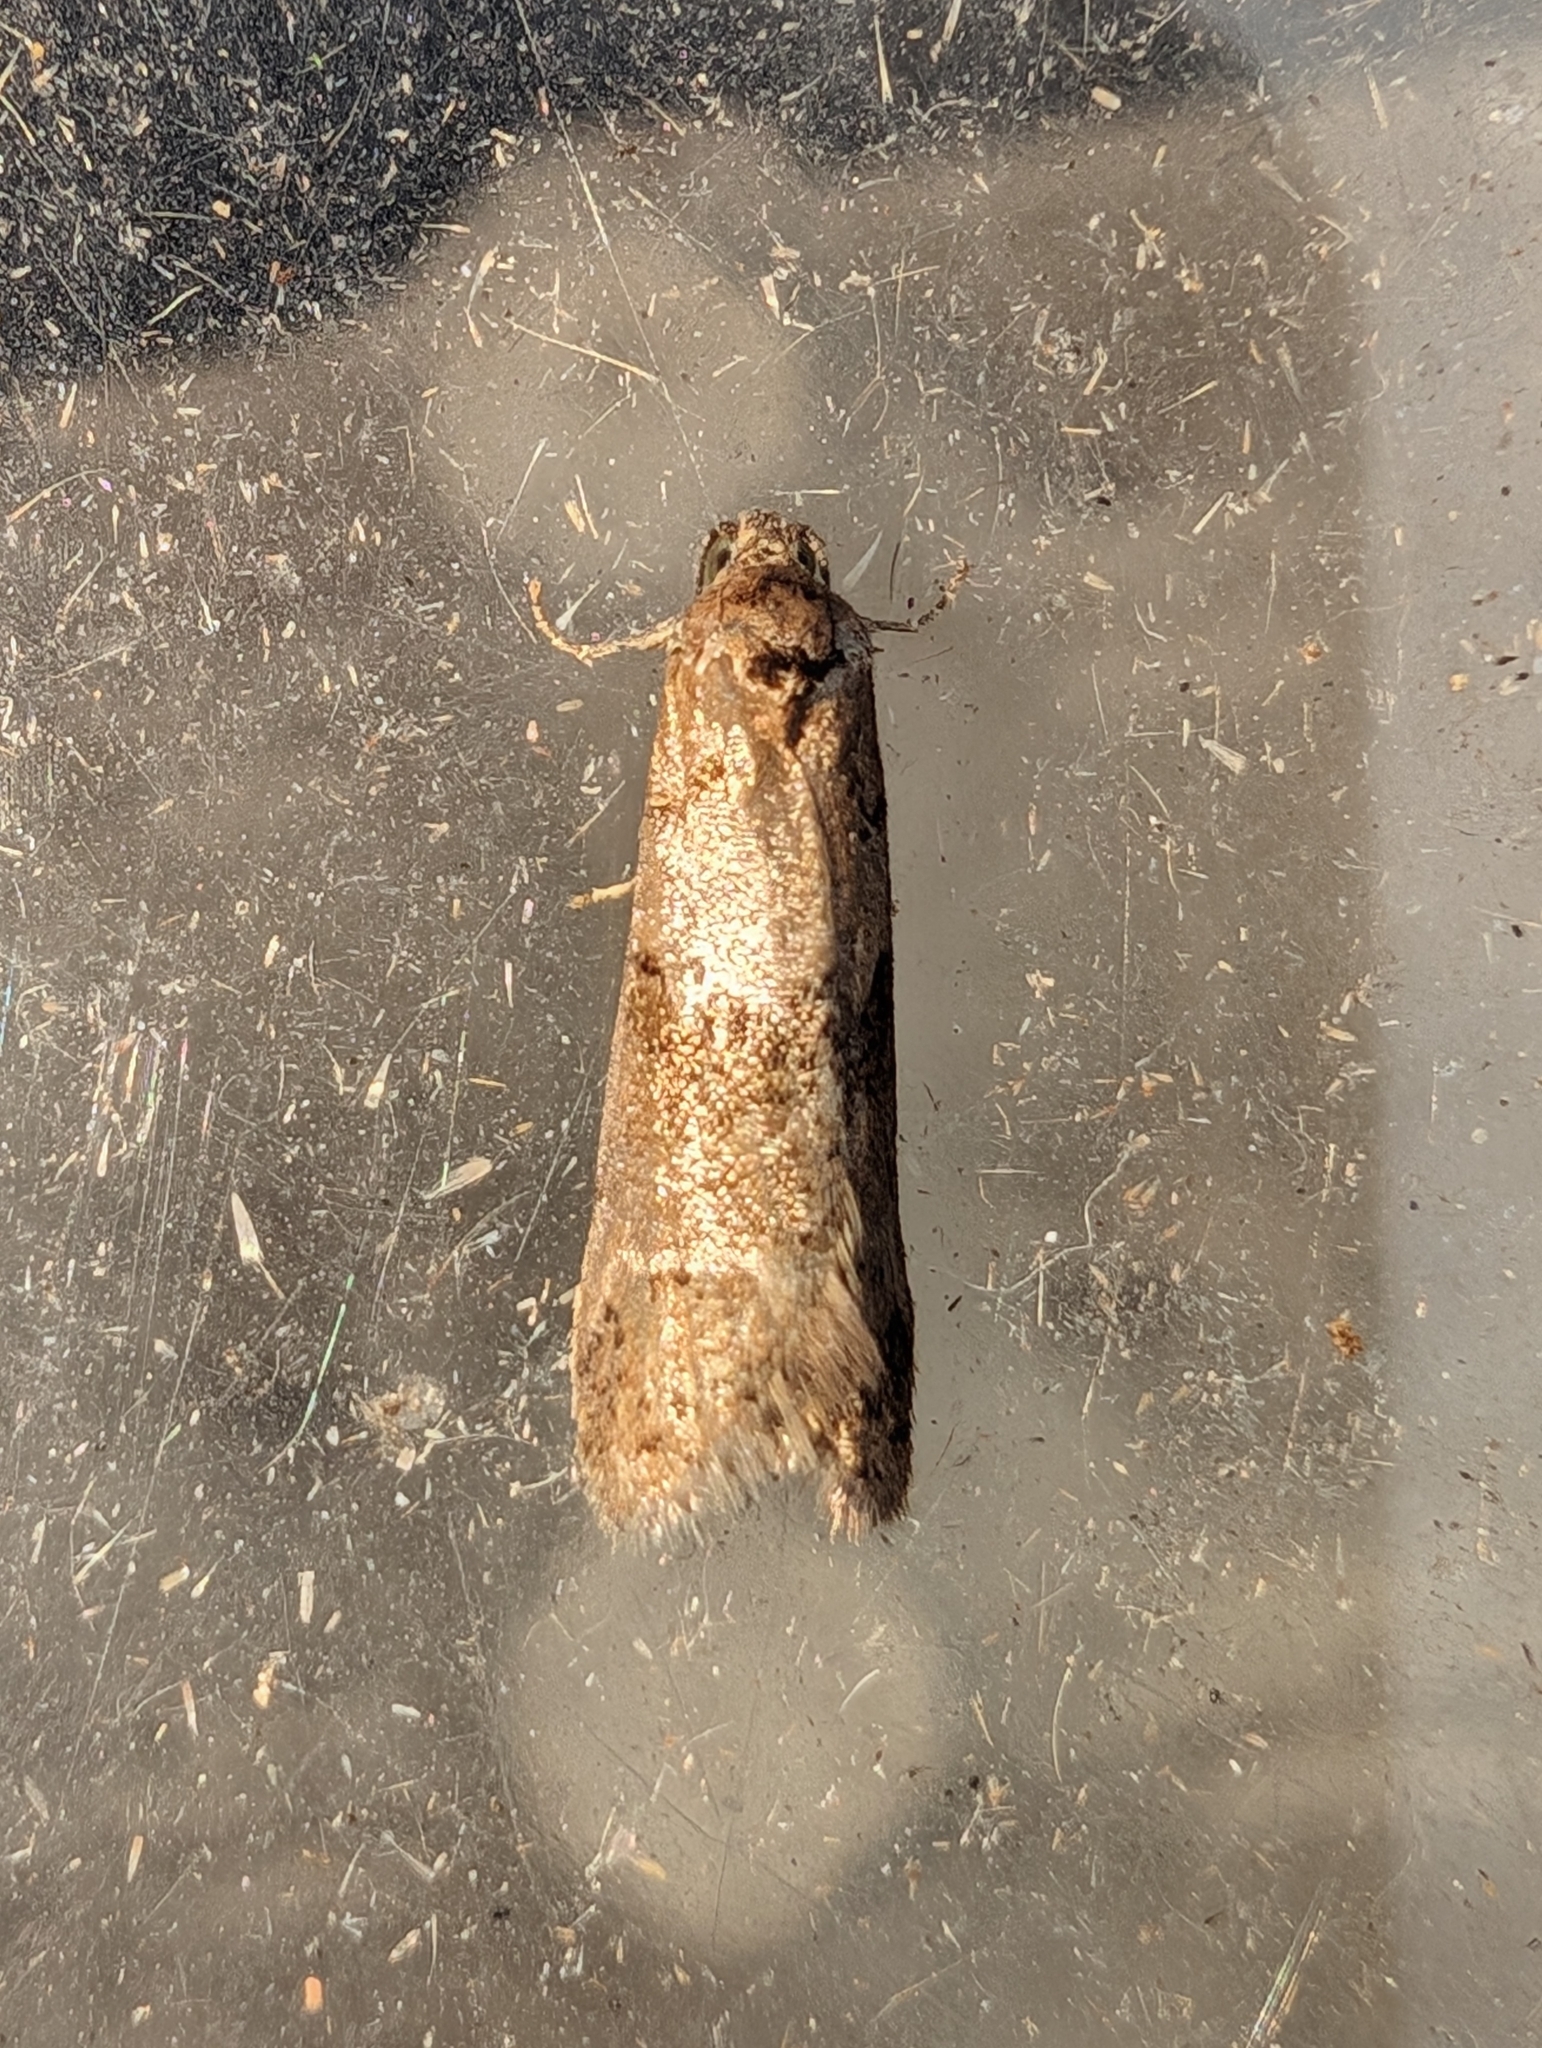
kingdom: Animalia
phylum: Arthropoda
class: Insecta
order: Lepidoptera
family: Tortricidae
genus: Tortricodes
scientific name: Tortricodes alternella
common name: Winter shade
